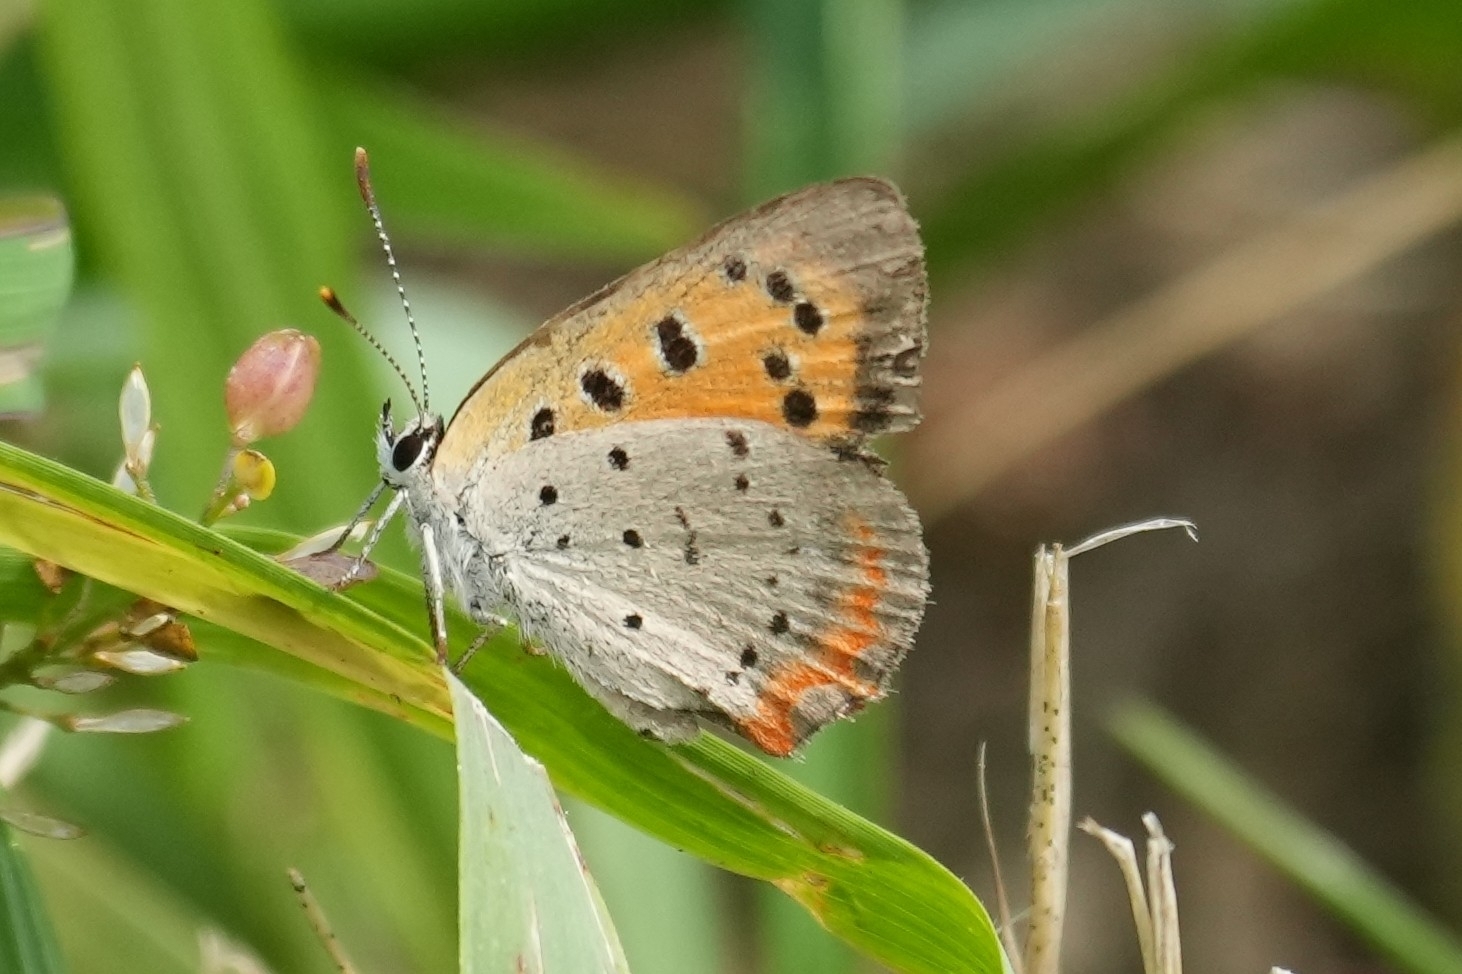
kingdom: Animalia
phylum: Arthropoda
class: Insecta
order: Lepidoptera
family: Lycaenidae
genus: Lycaena
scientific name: Lycaena hypophlaeas
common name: American copper
